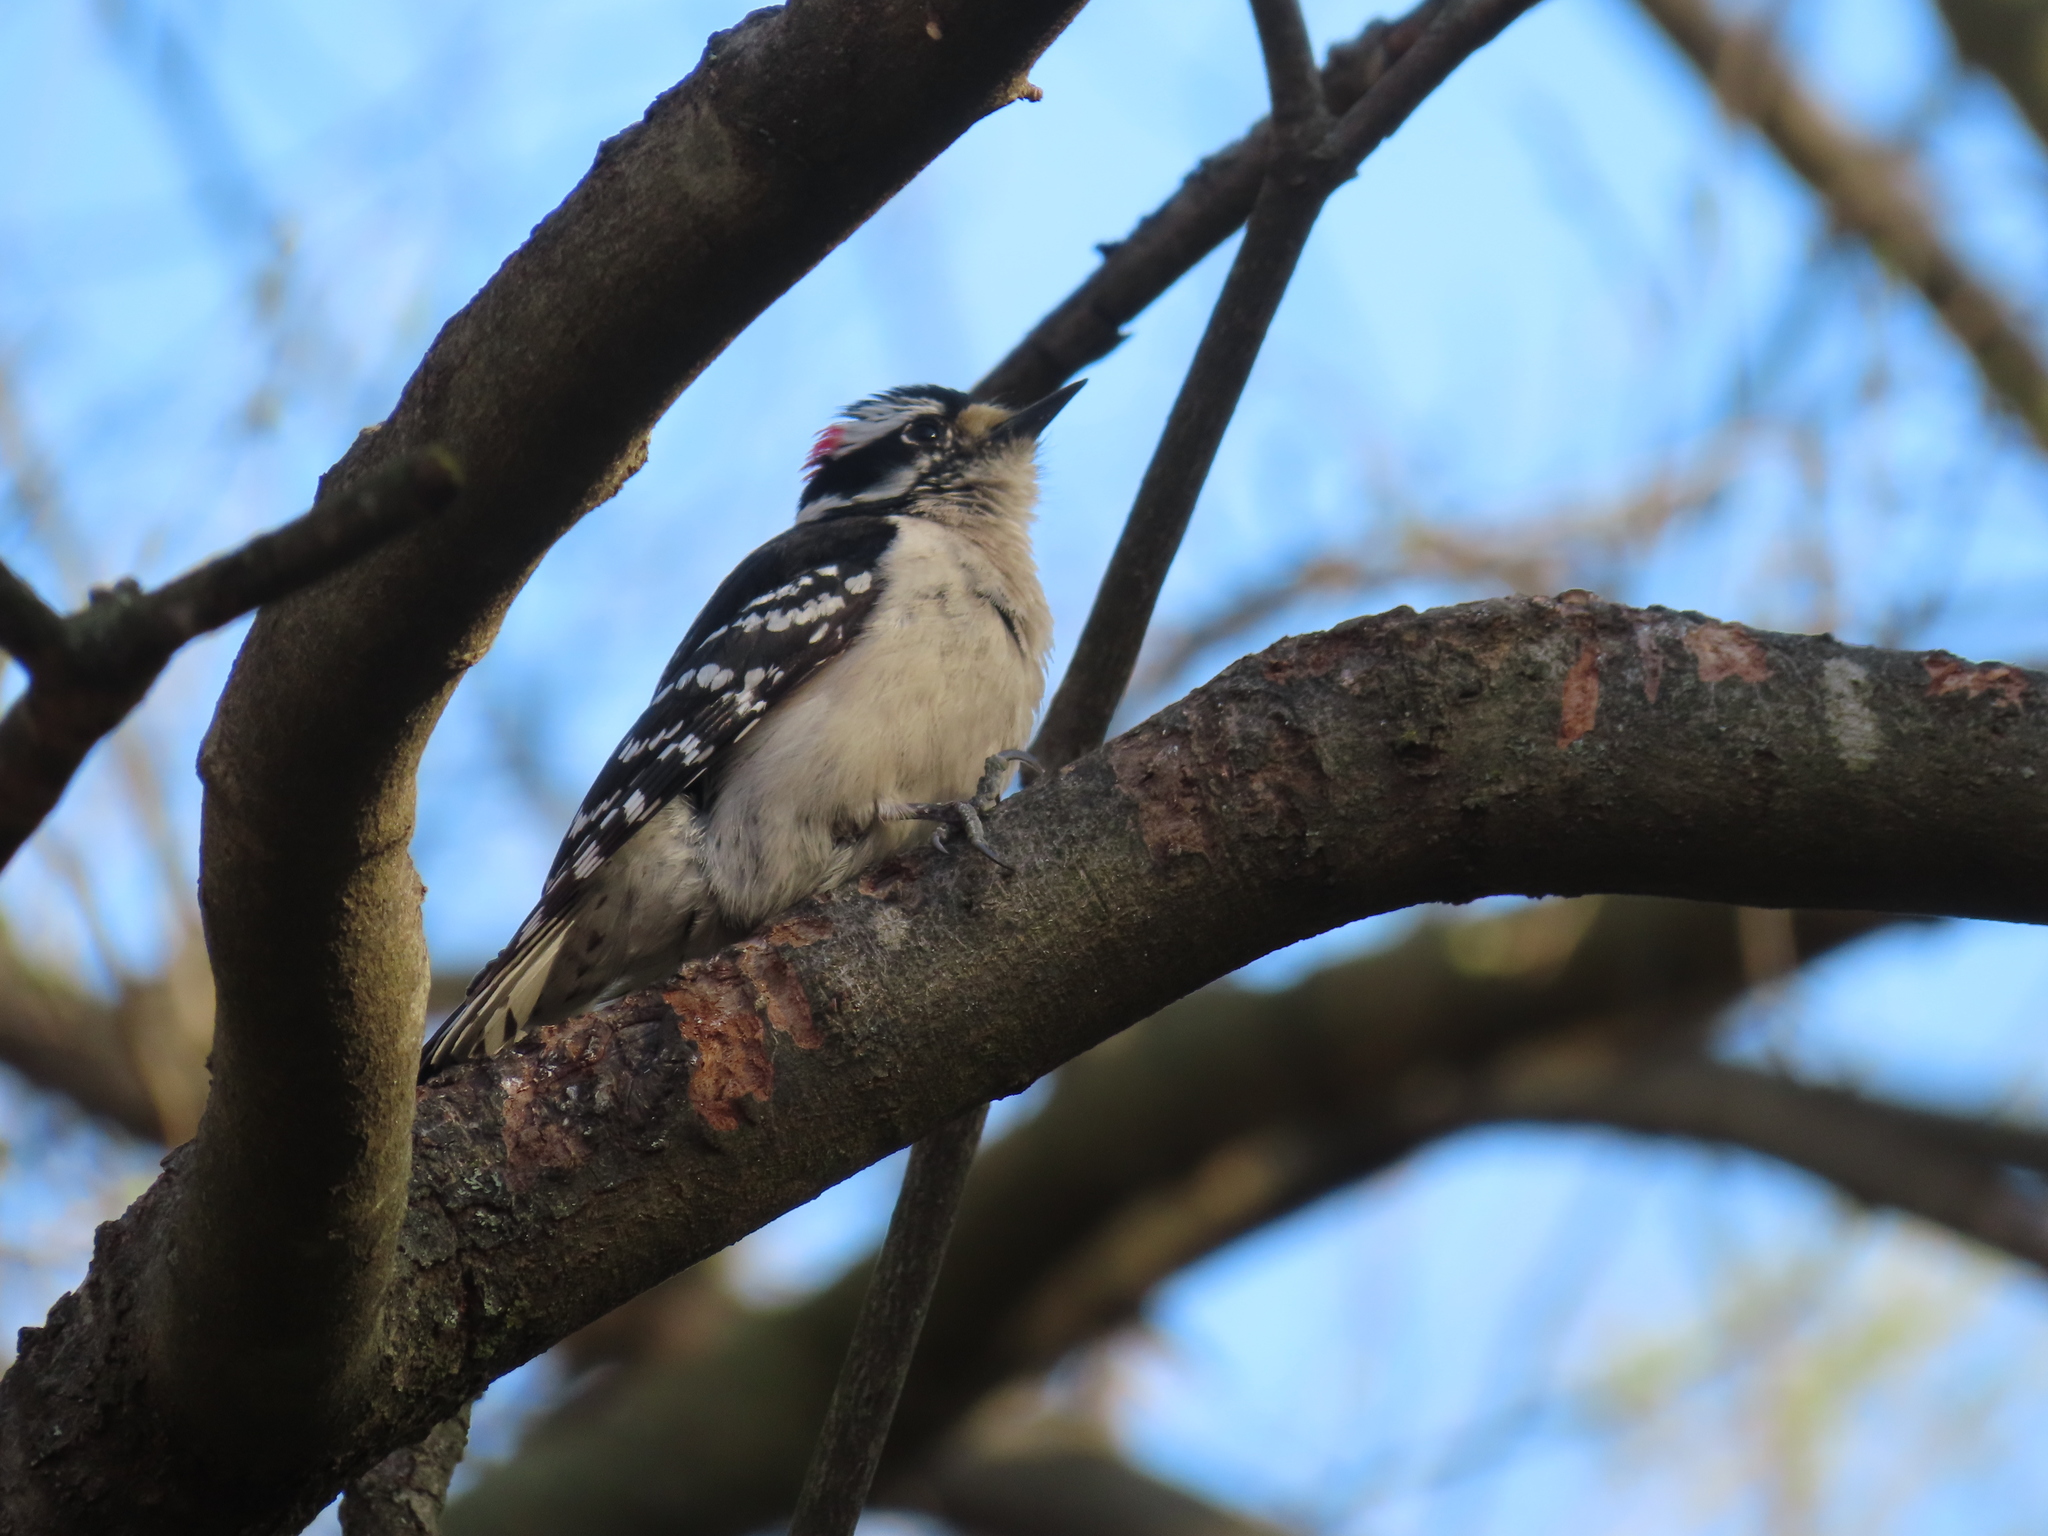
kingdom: Animalia
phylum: Chordata
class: Aves
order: Piciformes
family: Picidae
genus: Dryobates
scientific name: Dryobates pubescens
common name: Downy woodpecker
